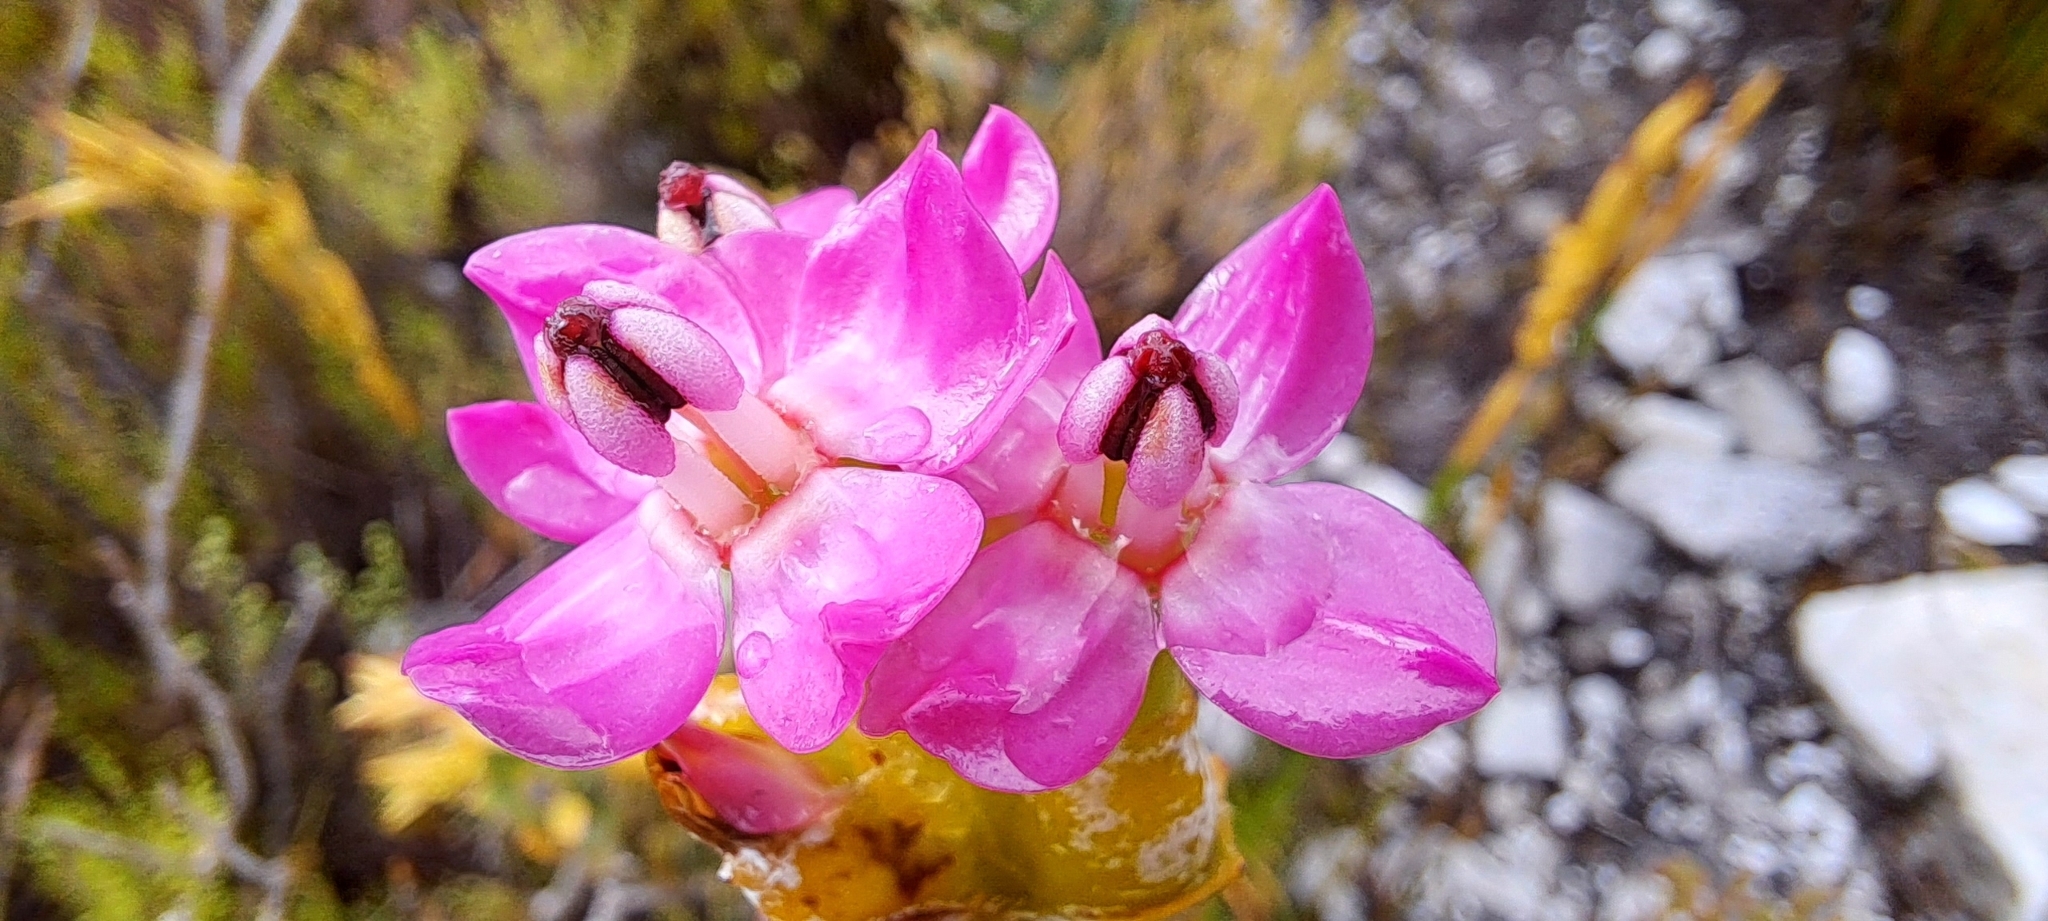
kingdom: Plantae
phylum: Tracheophyta
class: Magnoliopsida
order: Myrtales
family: Penaeaceae
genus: Saltera
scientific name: Saltera sarcocolla
